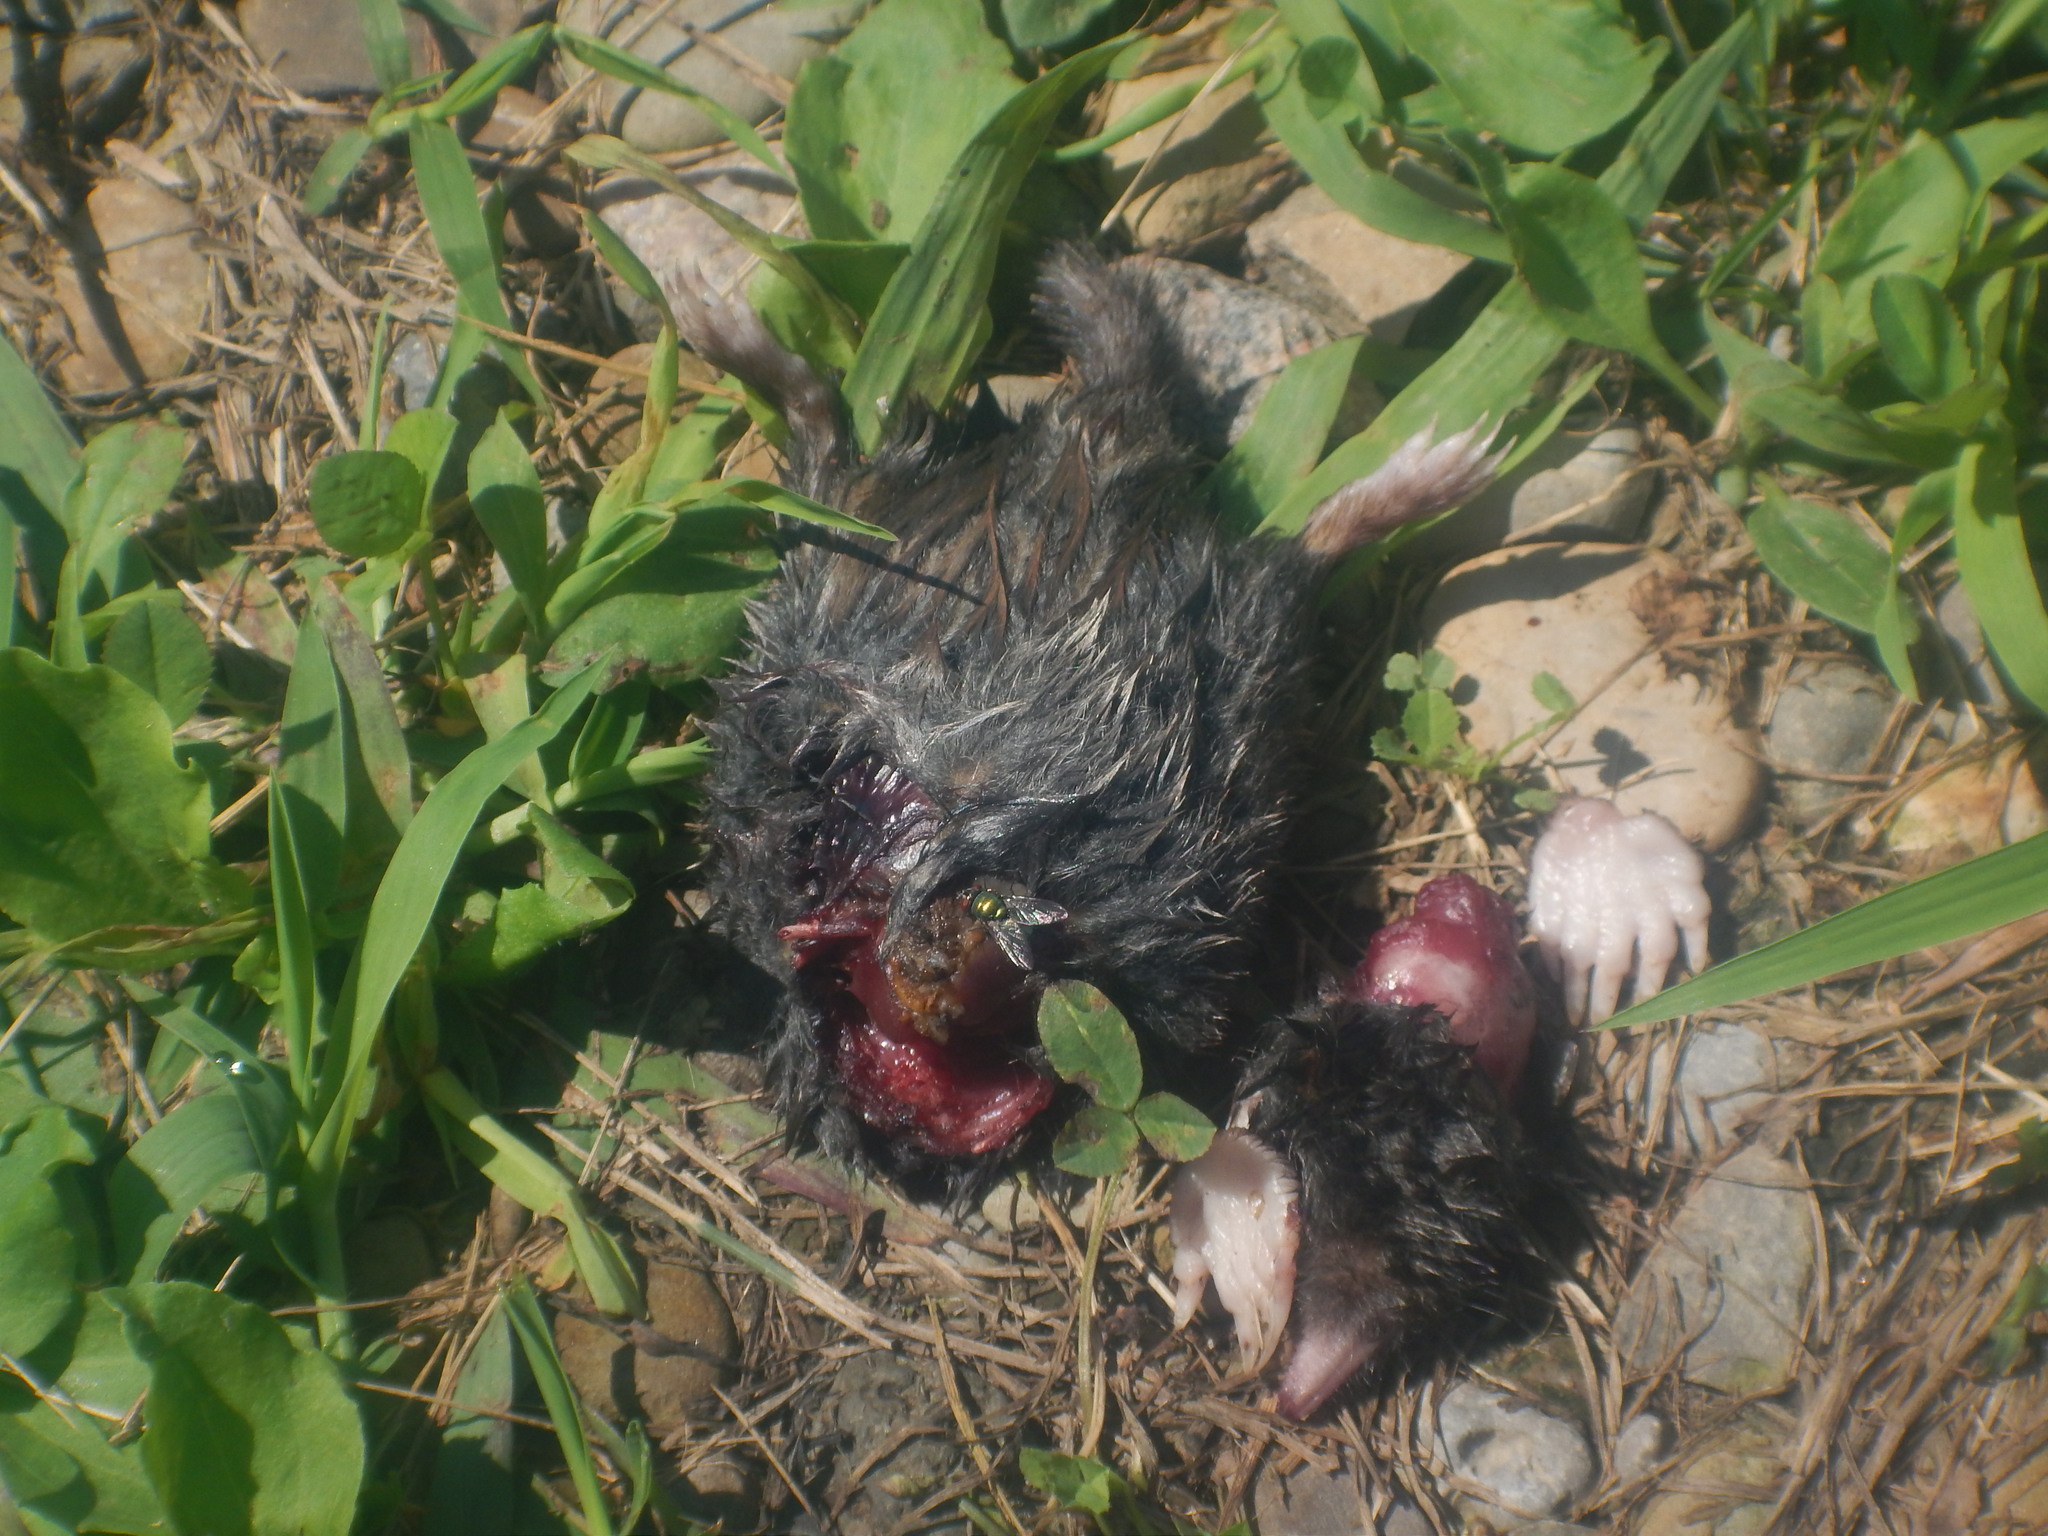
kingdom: Animalia
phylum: Chordata
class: Mammalia
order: Soricomorpha
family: Talpidae
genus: Parascalops
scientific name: Parascalops breweri
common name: Hairy-tailed mole
